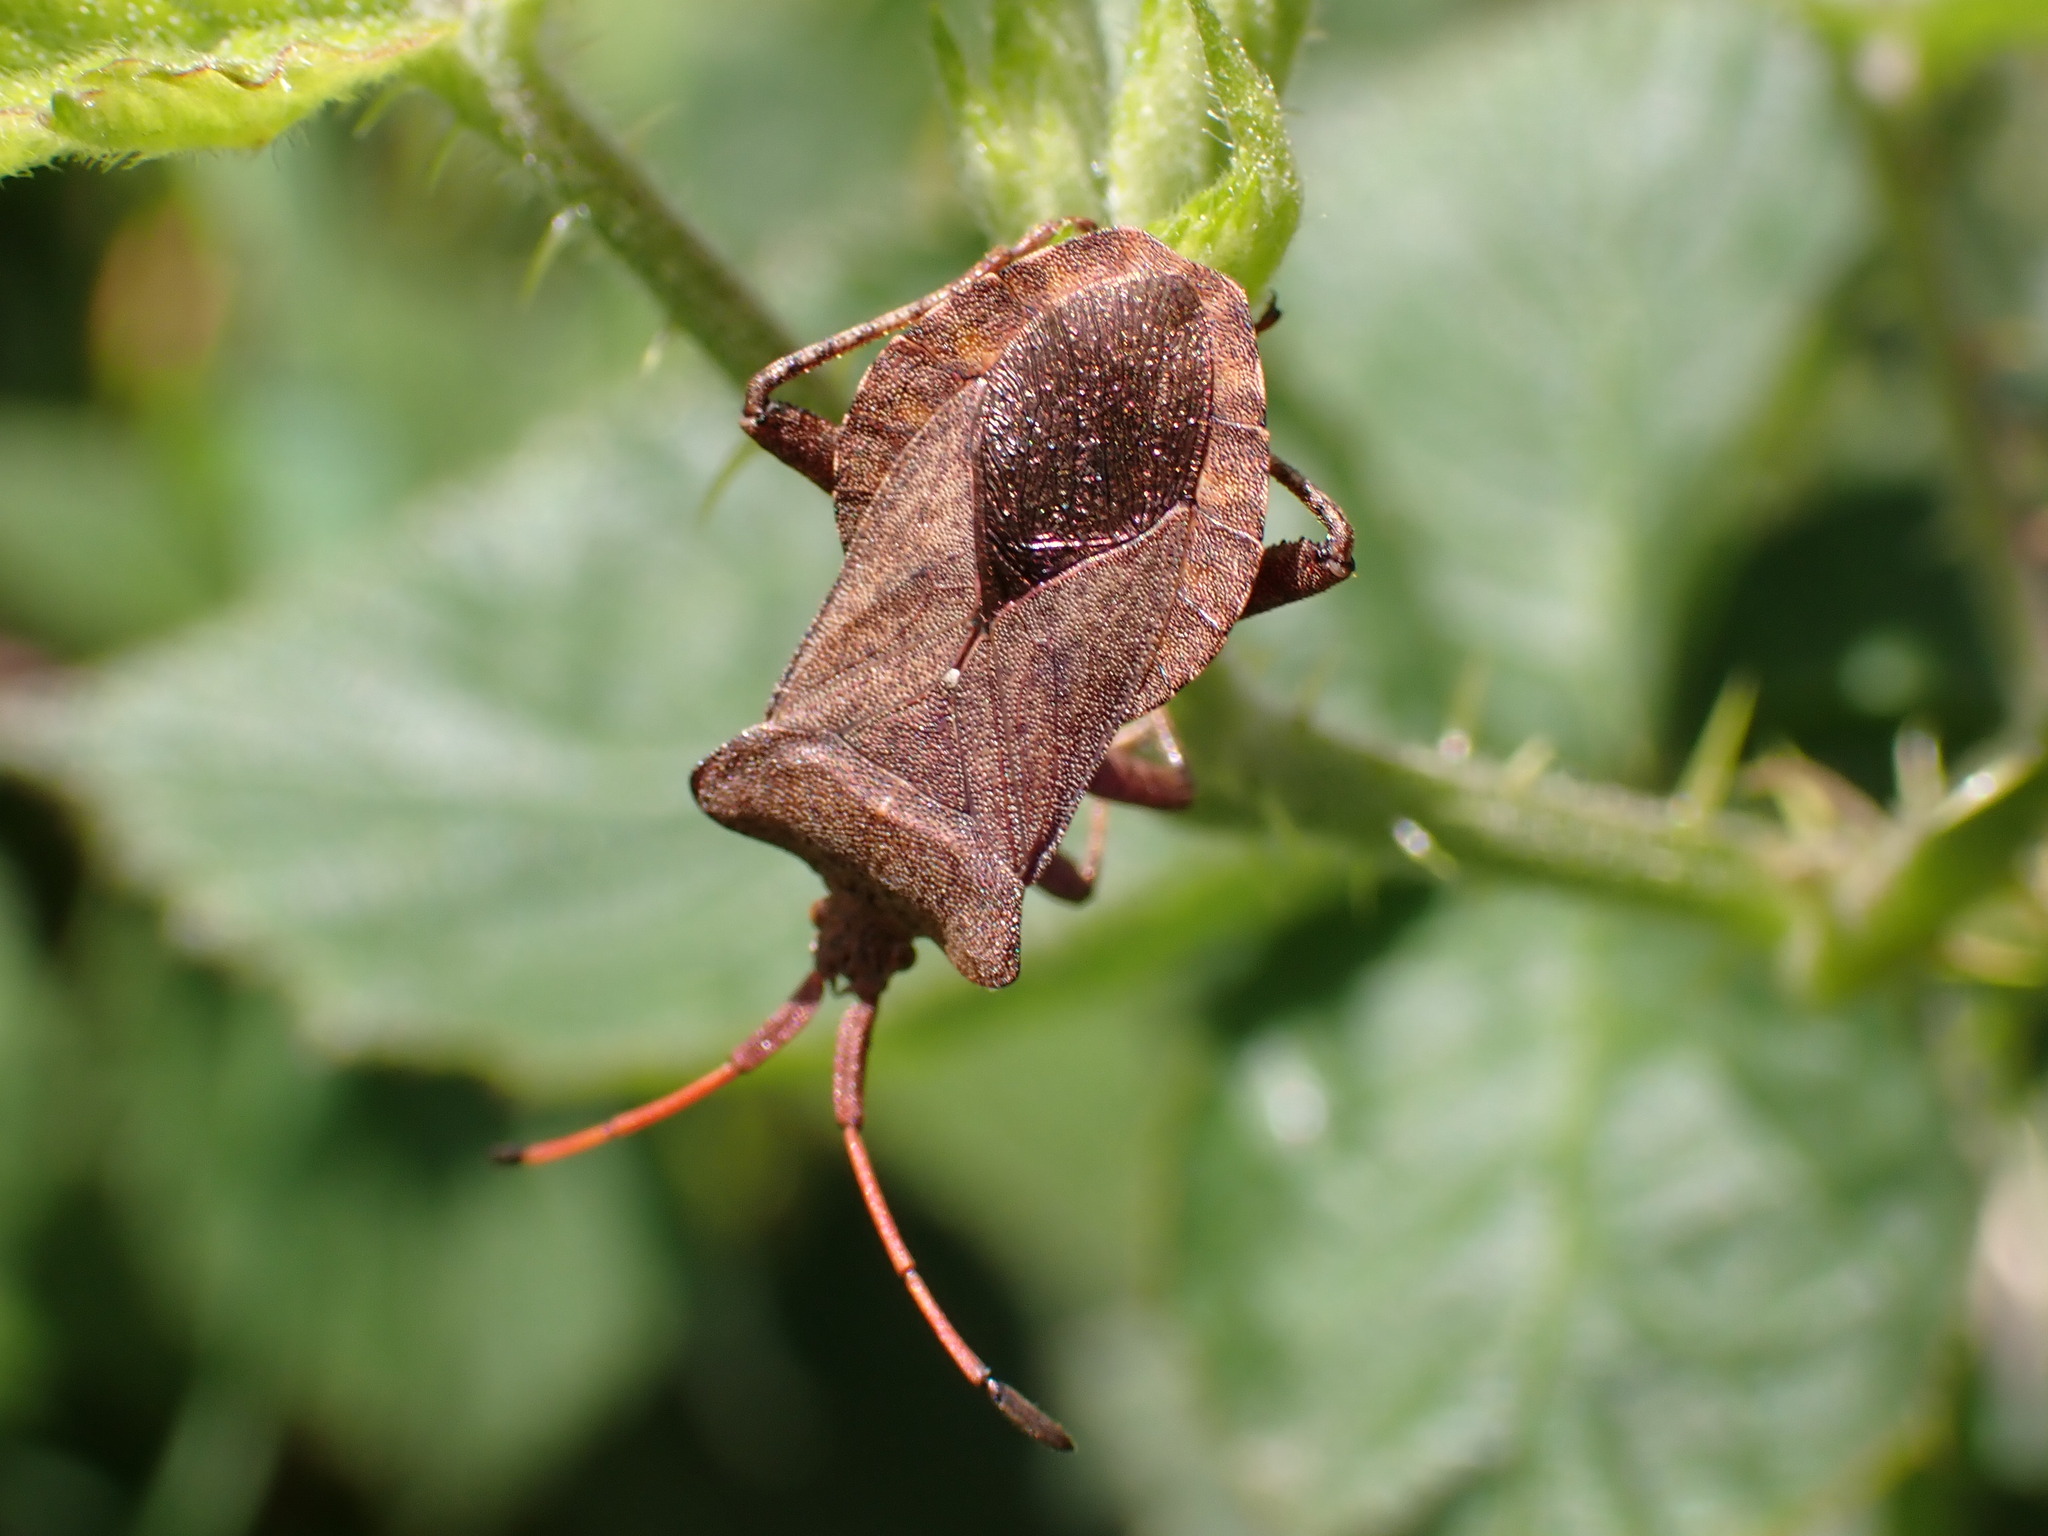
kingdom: Animalia
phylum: Arthropoda
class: Insecta
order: Hemiptera
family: Coreidae
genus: Coreus
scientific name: Coreus marginatus
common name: Dock bug
